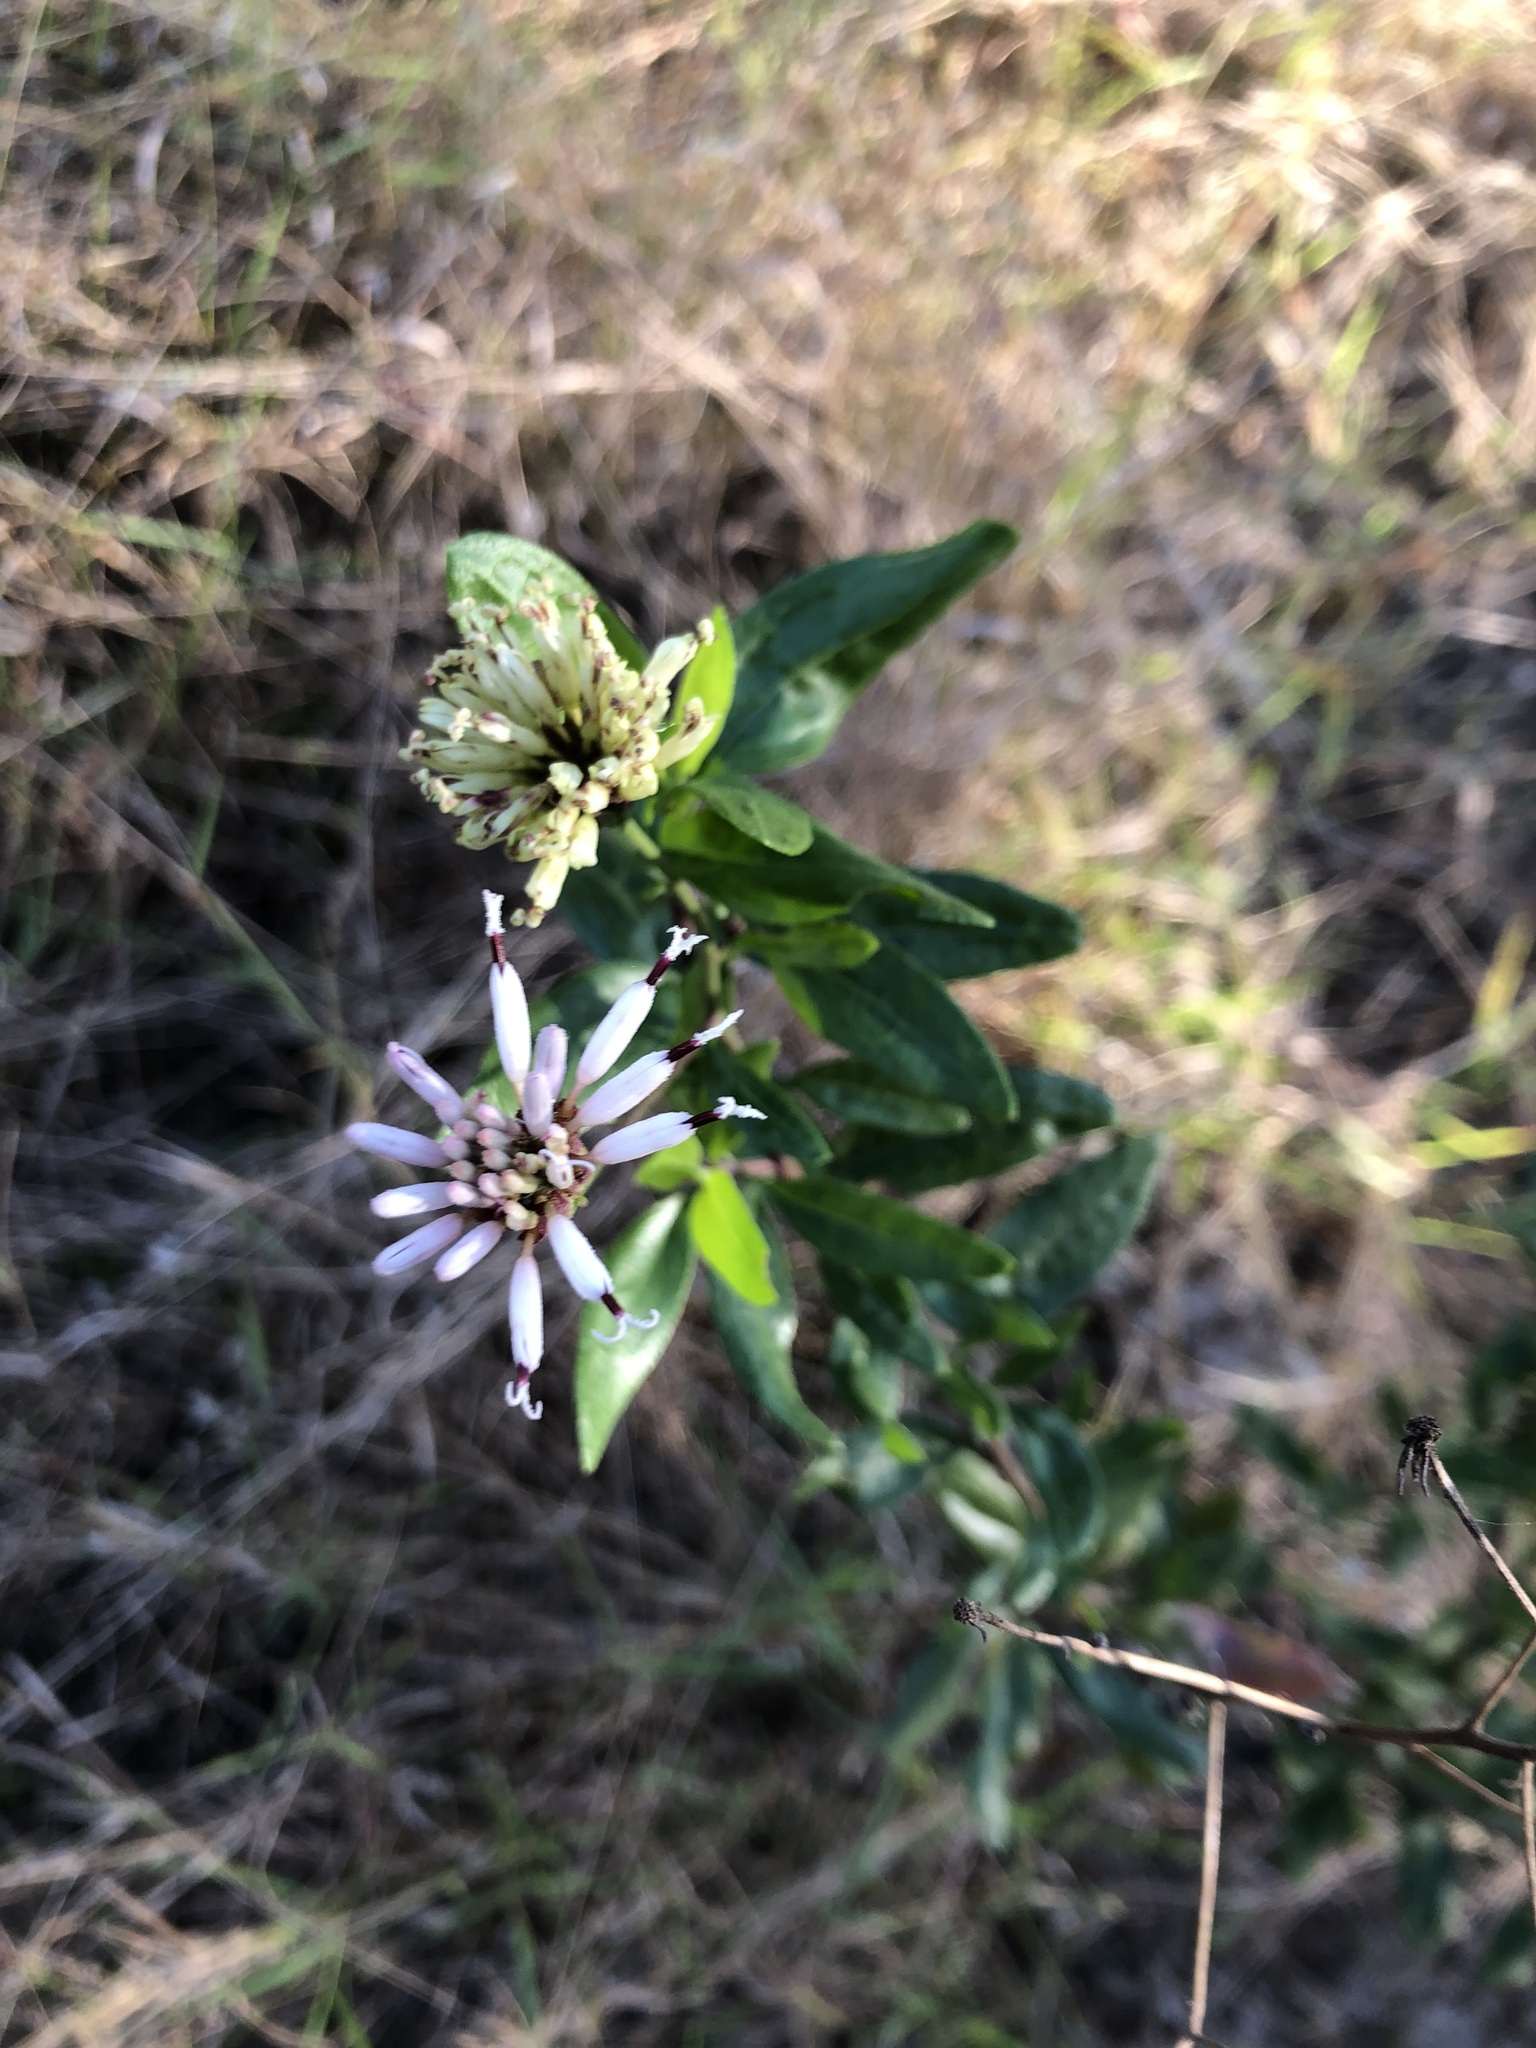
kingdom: Plantae
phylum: Tracheophyta
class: Magnoliopsida
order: Asterales
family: Asteraceae
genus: Palafoxia
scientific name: Palafoxia feayi
